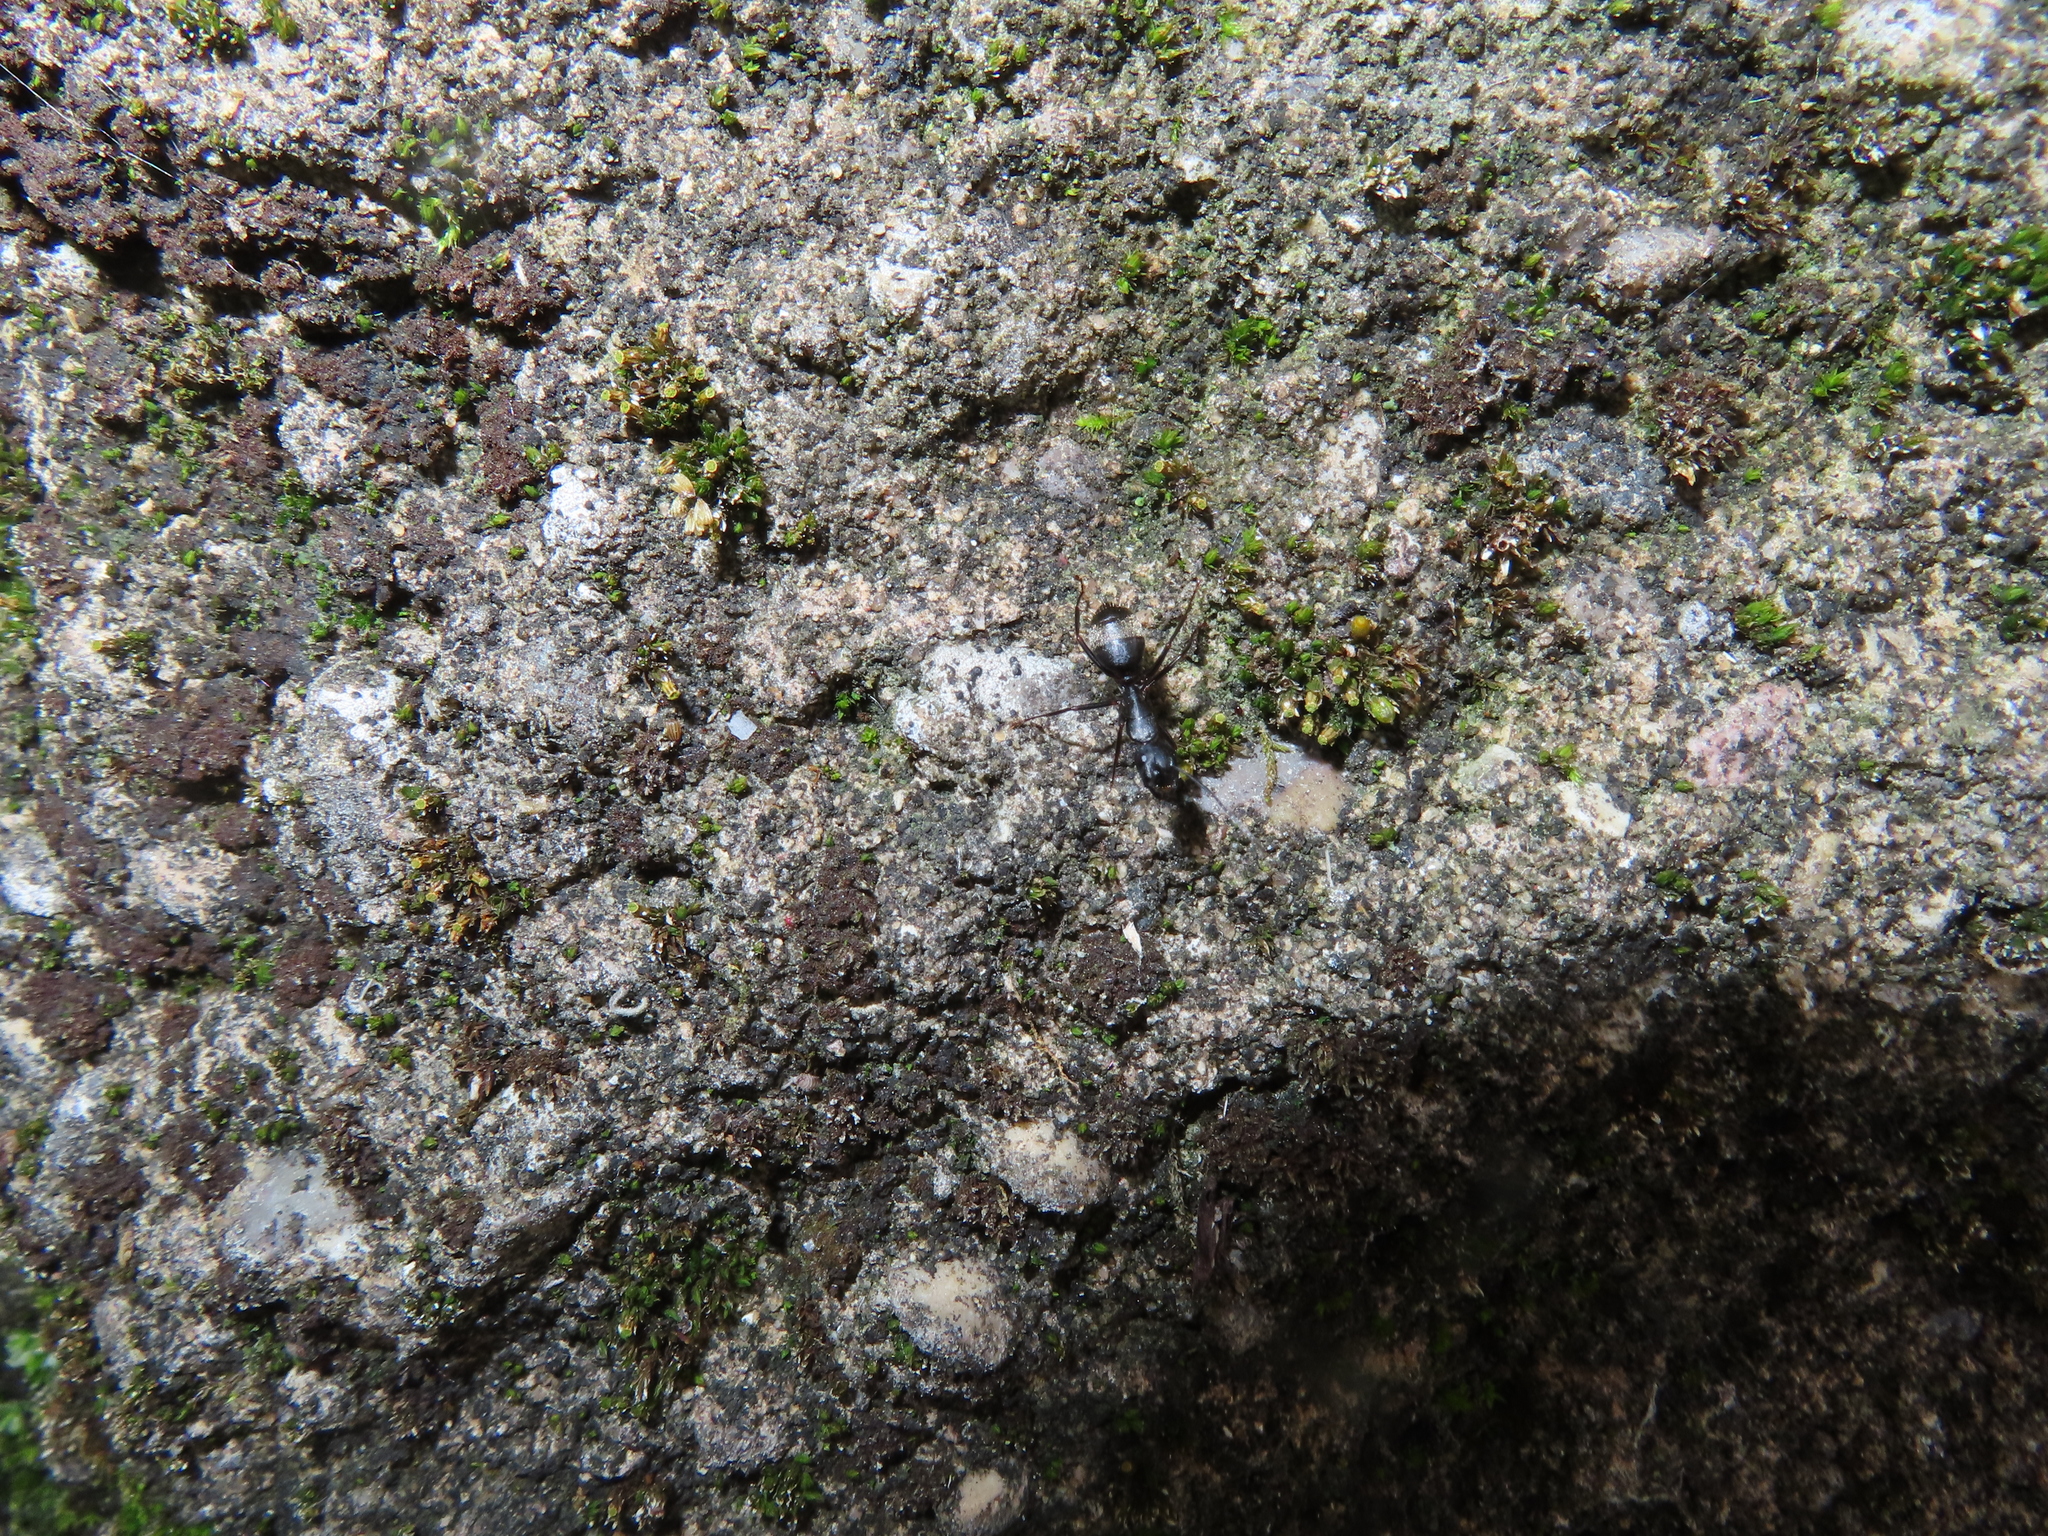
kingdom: Animalia
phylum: Arthropoda
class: Insecta
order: Hymenoptera
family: Formicidae
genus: Camponotus
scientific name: Camponotus pennsylvanicus
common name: Black carpenter ant
